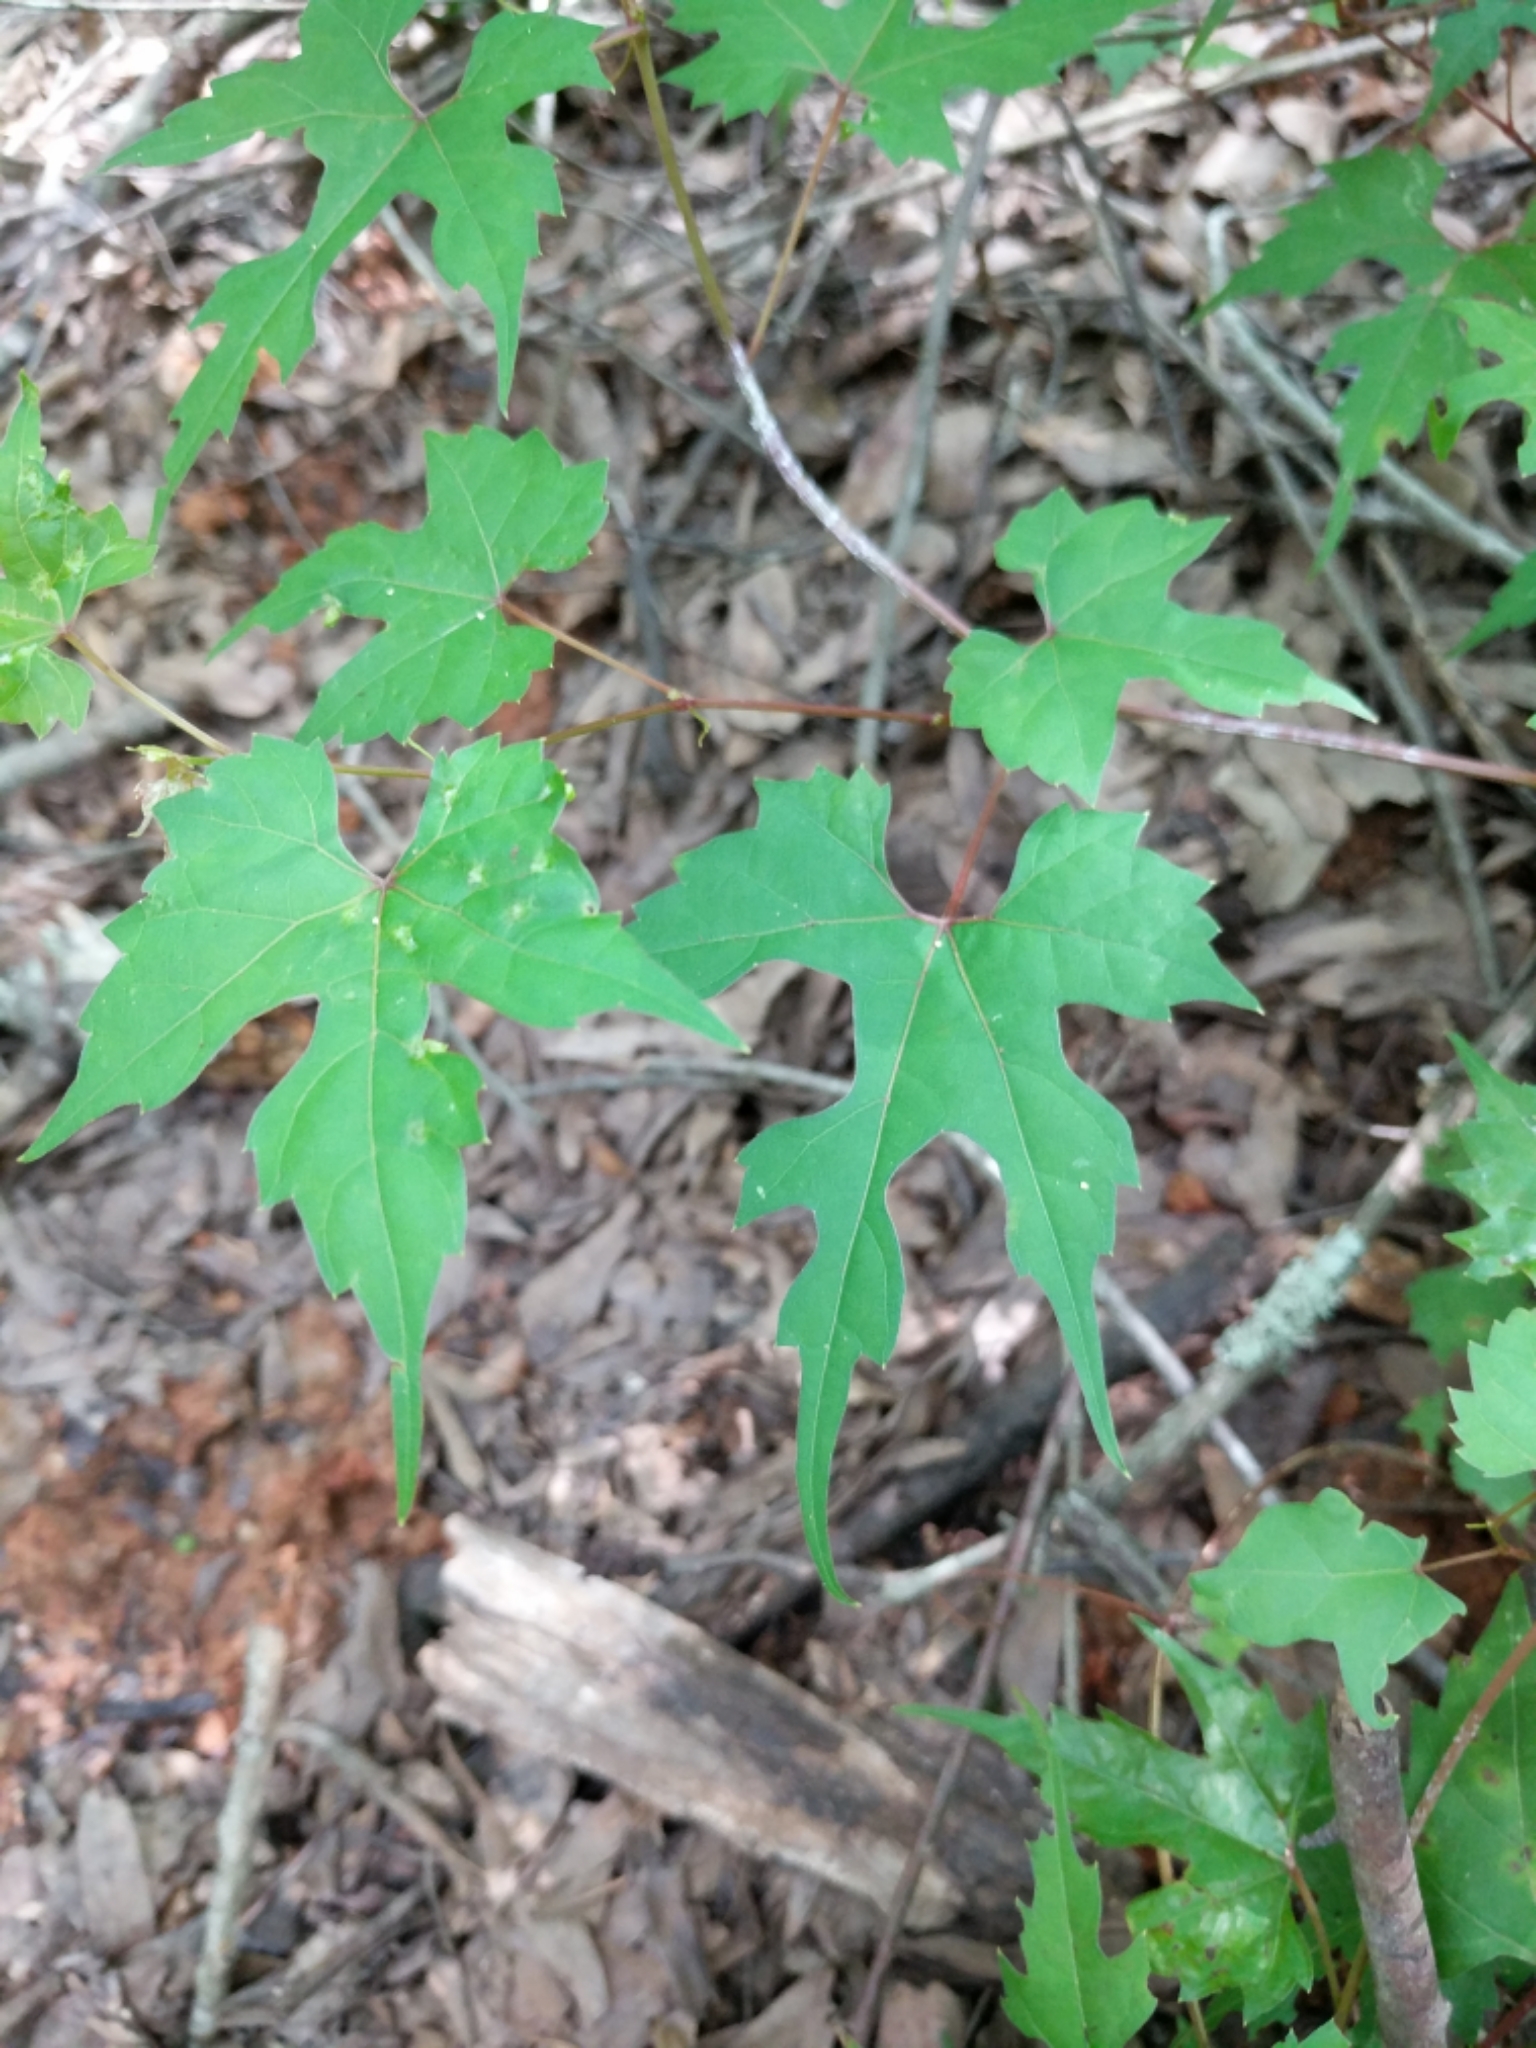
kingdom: Plantae
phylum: Tracheophyta
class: Magnoliopsida
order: Vitales
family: Vitaceae
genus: Vitis
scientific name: Vitis palmata
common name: Catbird grape
